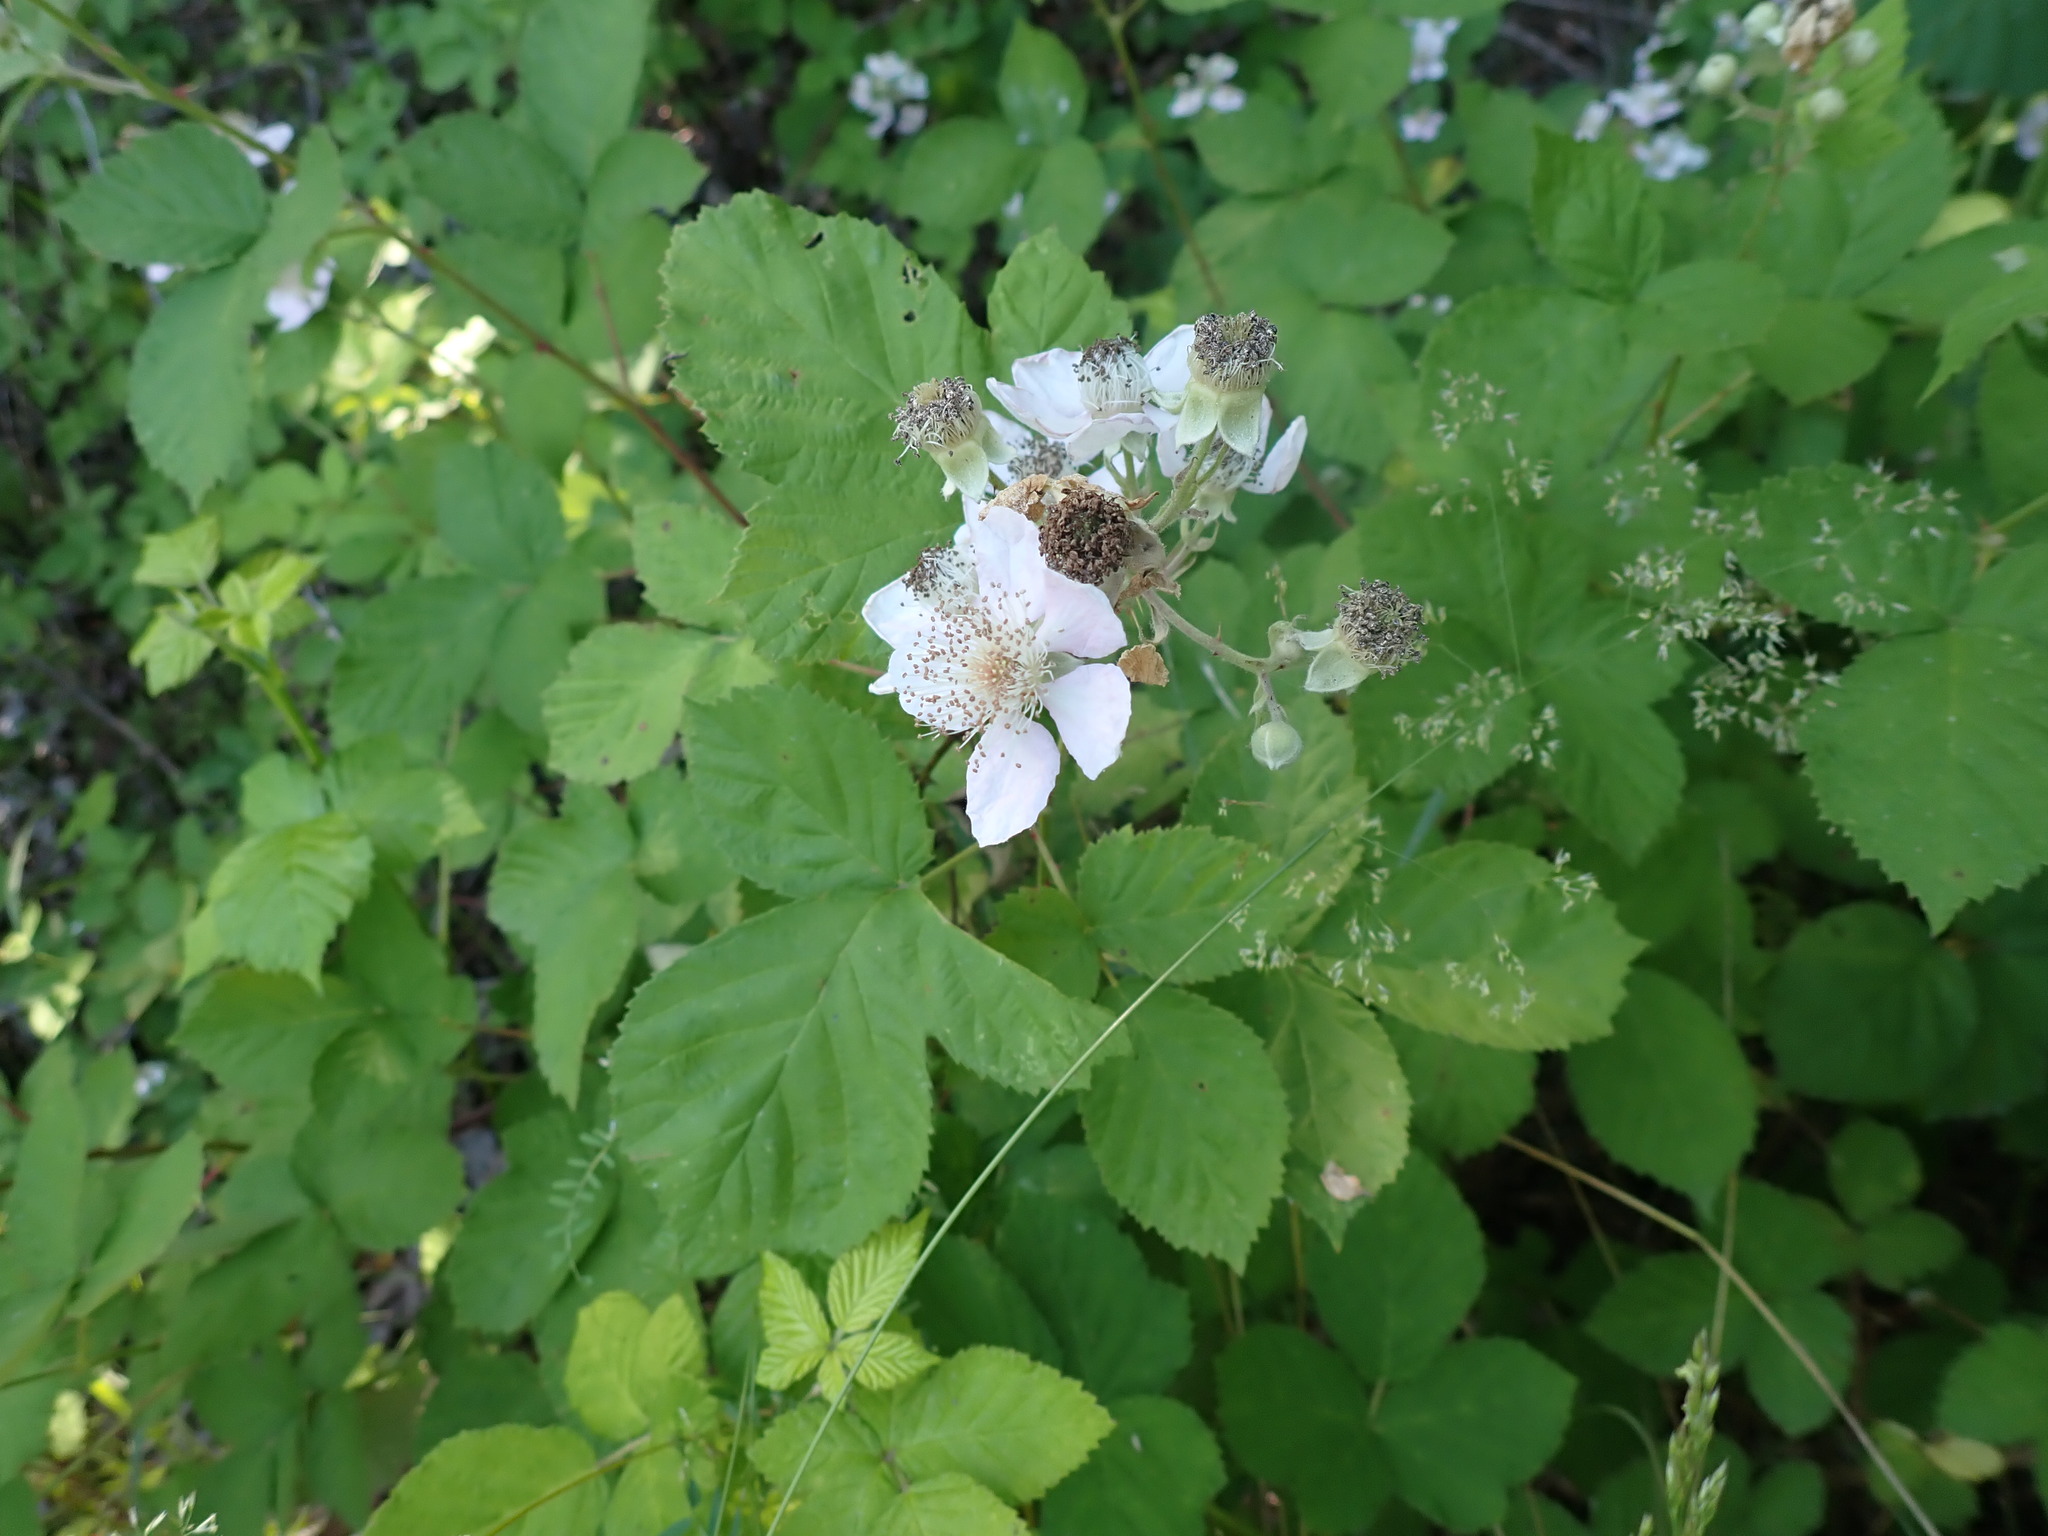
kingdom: Plantae
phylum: Tracheophyta
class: Magnoliopsida
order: Rosales
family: Rosaceae
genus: Rubus
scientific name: Rubus bifrons
